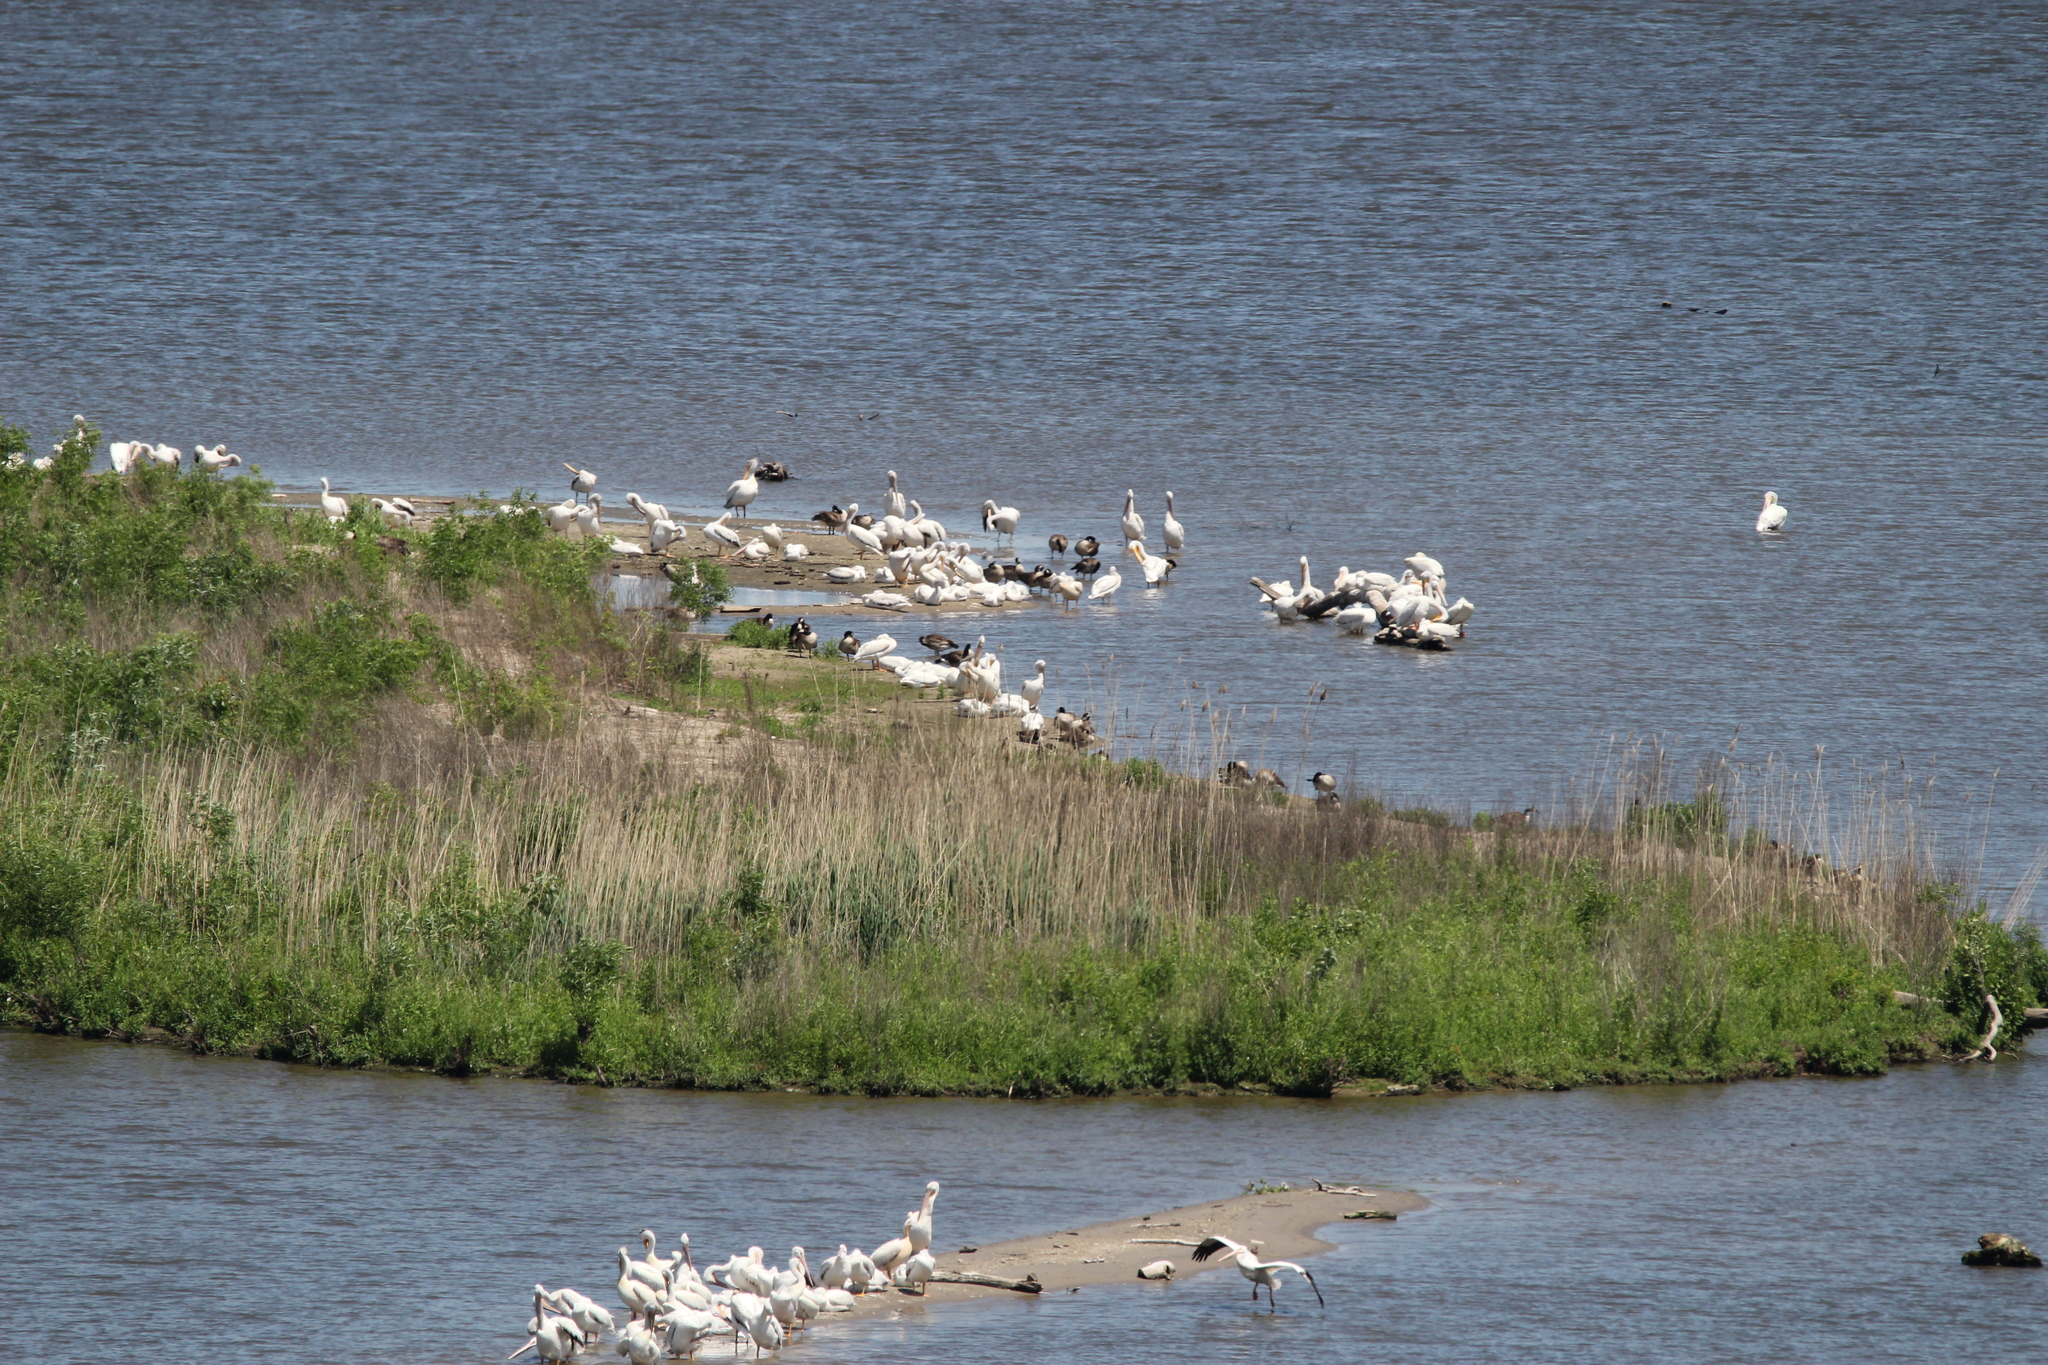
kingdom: Animalia
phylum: Chordata
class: Aves
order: Pelecaniformes
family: Pelecanidae
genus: Pelecanus
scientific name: Pelecanus erythrorhynchos
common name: American white pelican
